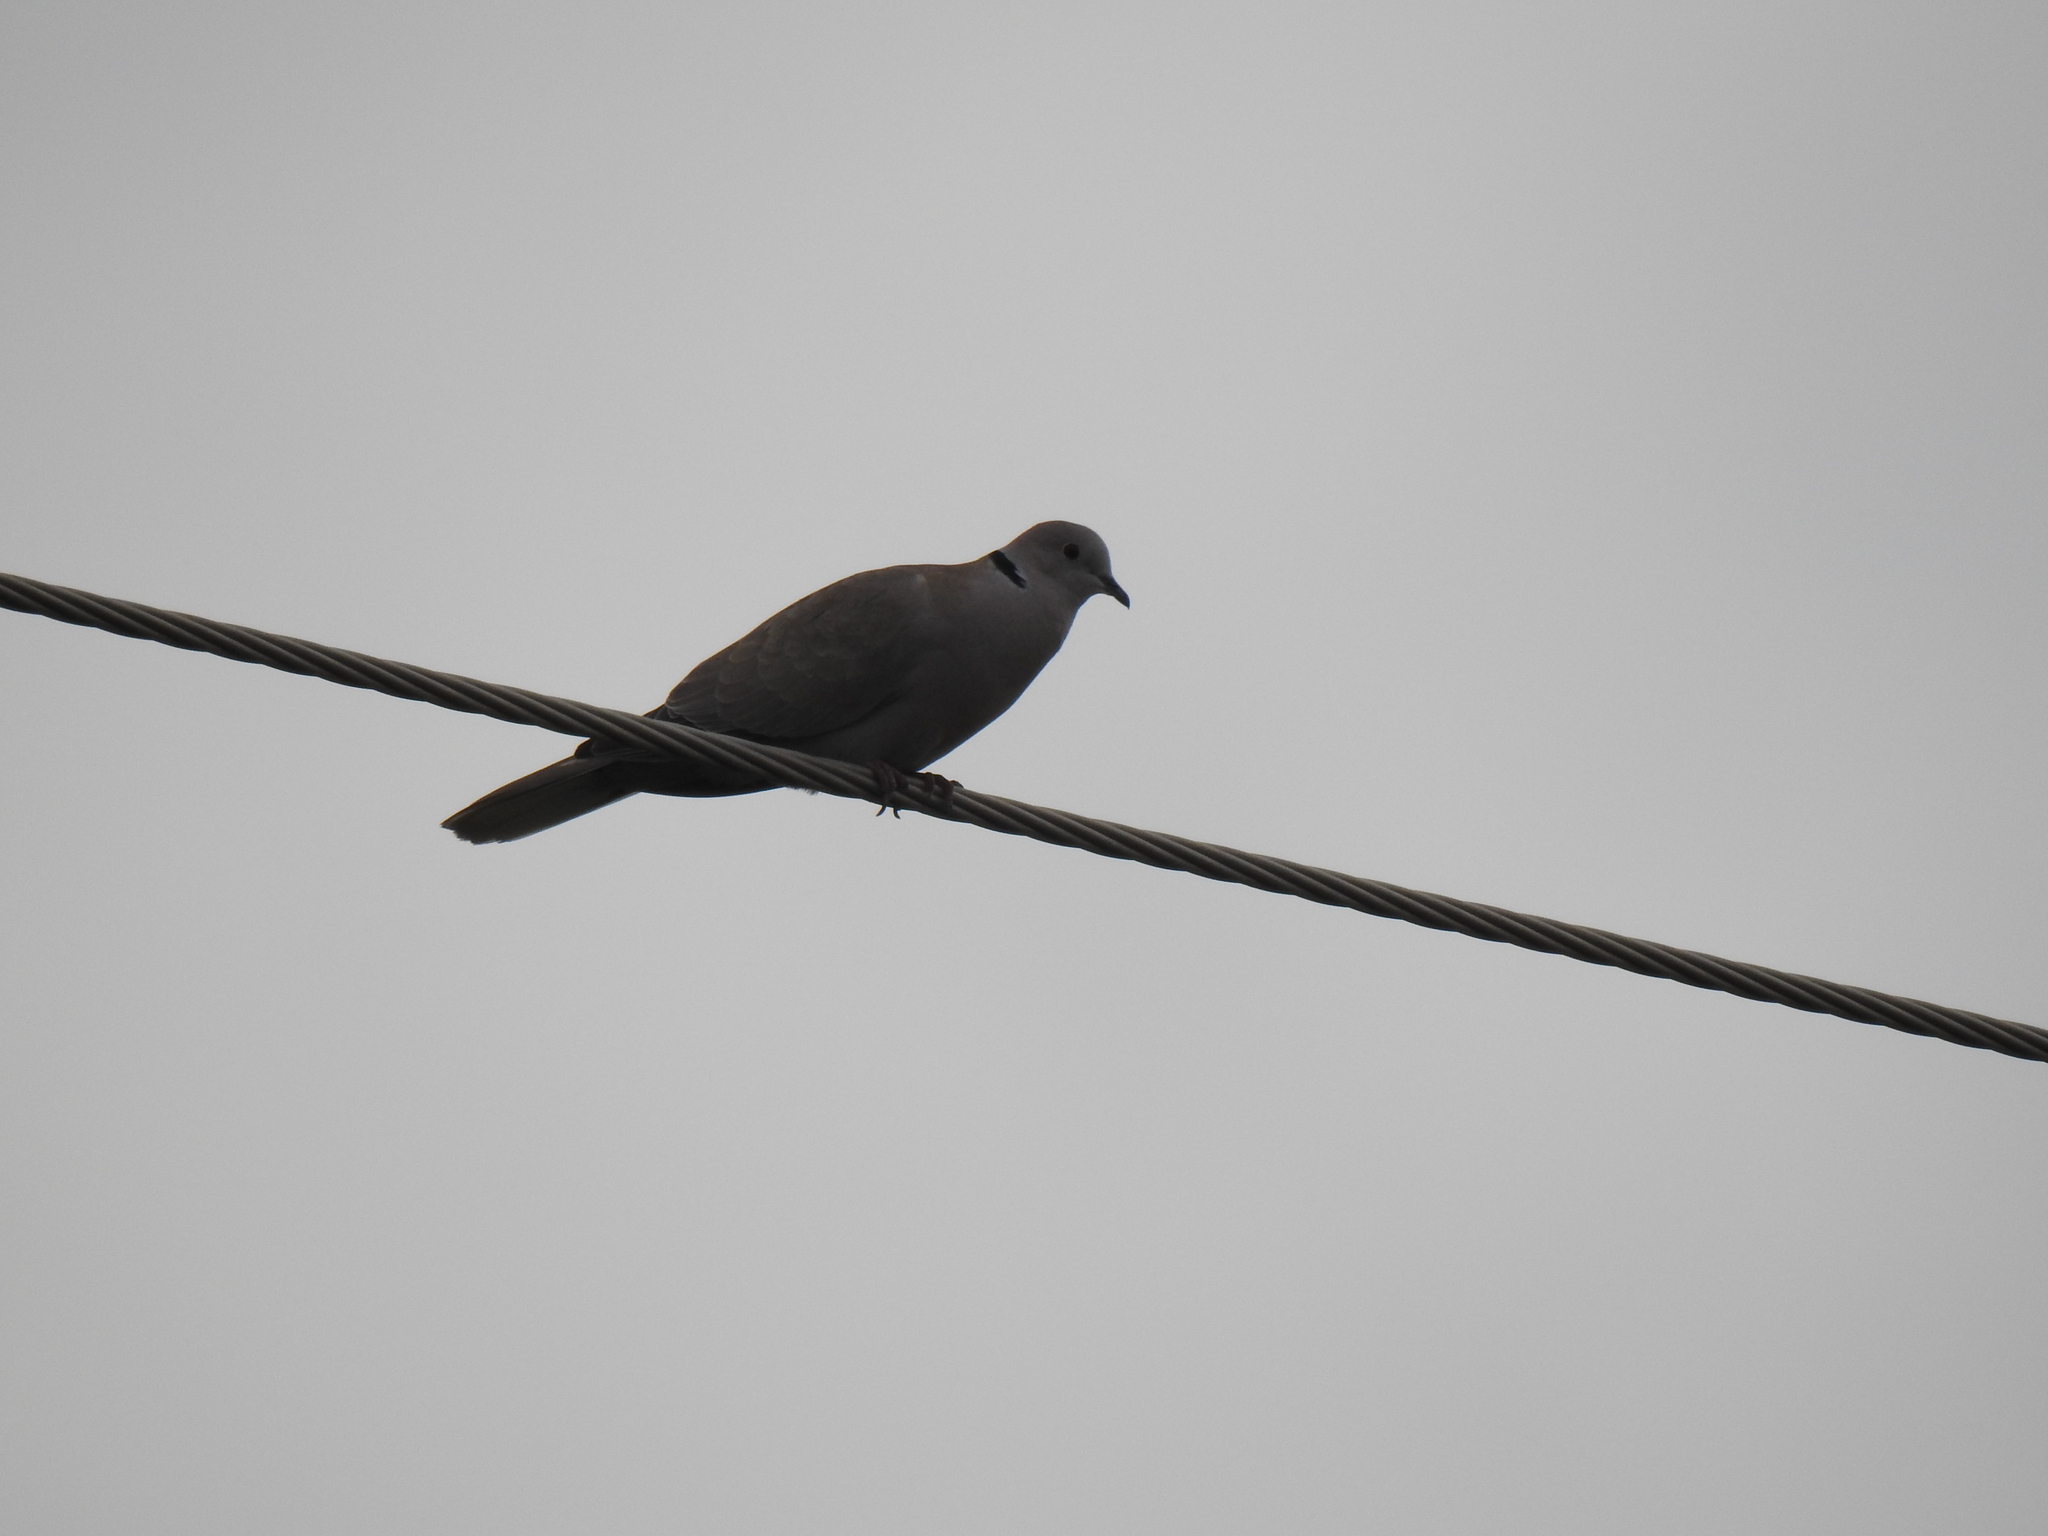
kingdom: Animalia
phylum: Chordata
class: Aves
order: Columbiformes
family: Columbidae
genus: Streptopelia
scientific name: Streptopelia decaocto
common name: Eurasian collared dove
